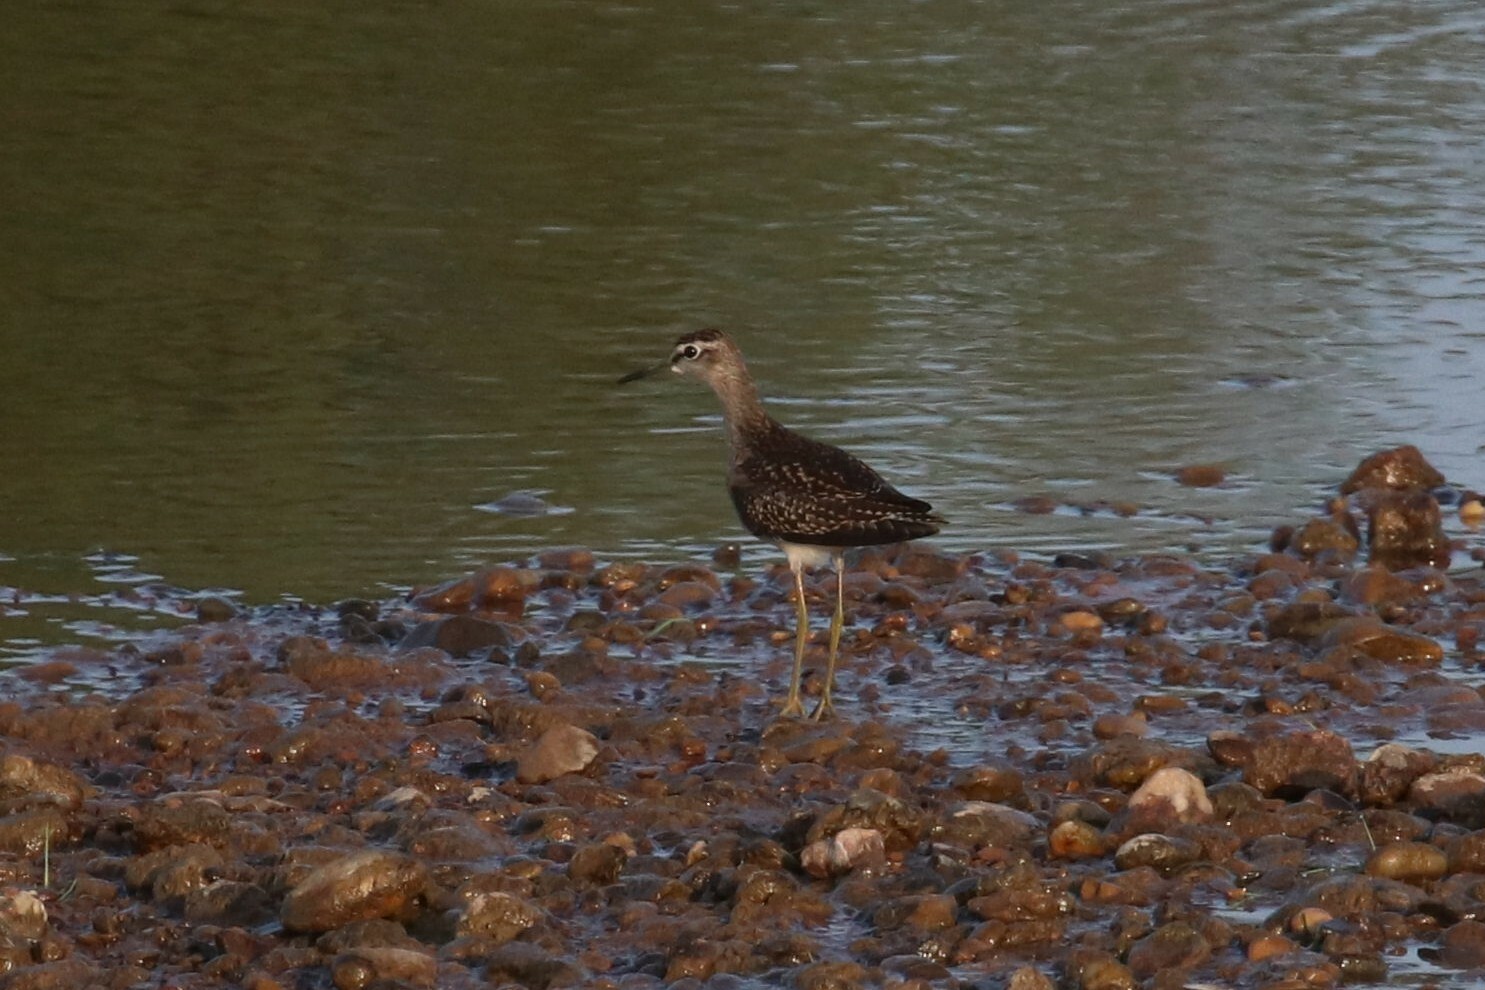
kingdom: Animalia
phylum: Chordata
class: Aves
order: Charadriiformes
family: Scolopacidae
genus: Tringa
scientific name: Tringa glareola
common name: Wood sandpiper
